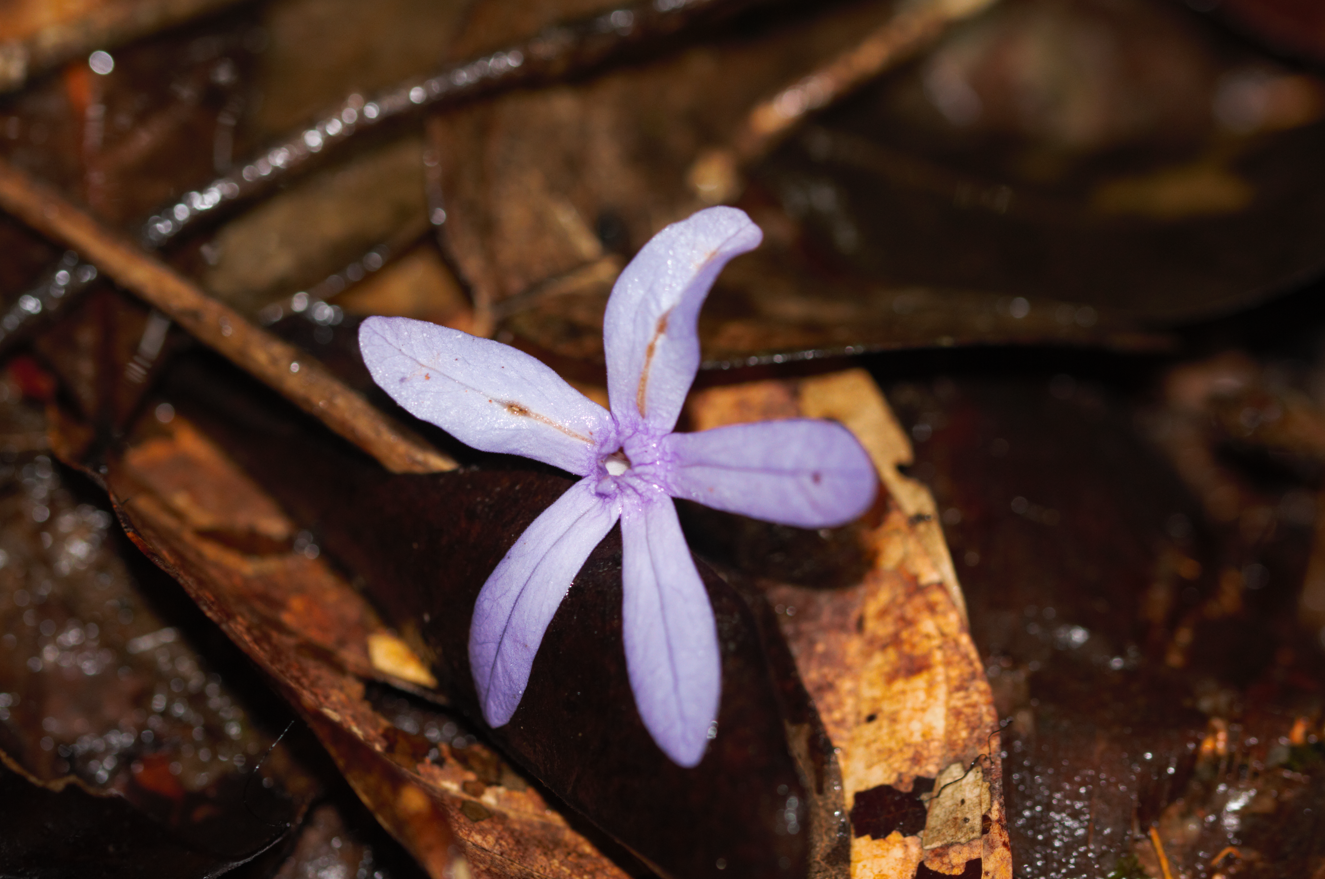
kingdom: Plantae
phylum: Tracheophyta
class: Magnoliopsida
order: Lamiales
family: Verbenaceae
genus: Petrea
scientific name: Petrea
